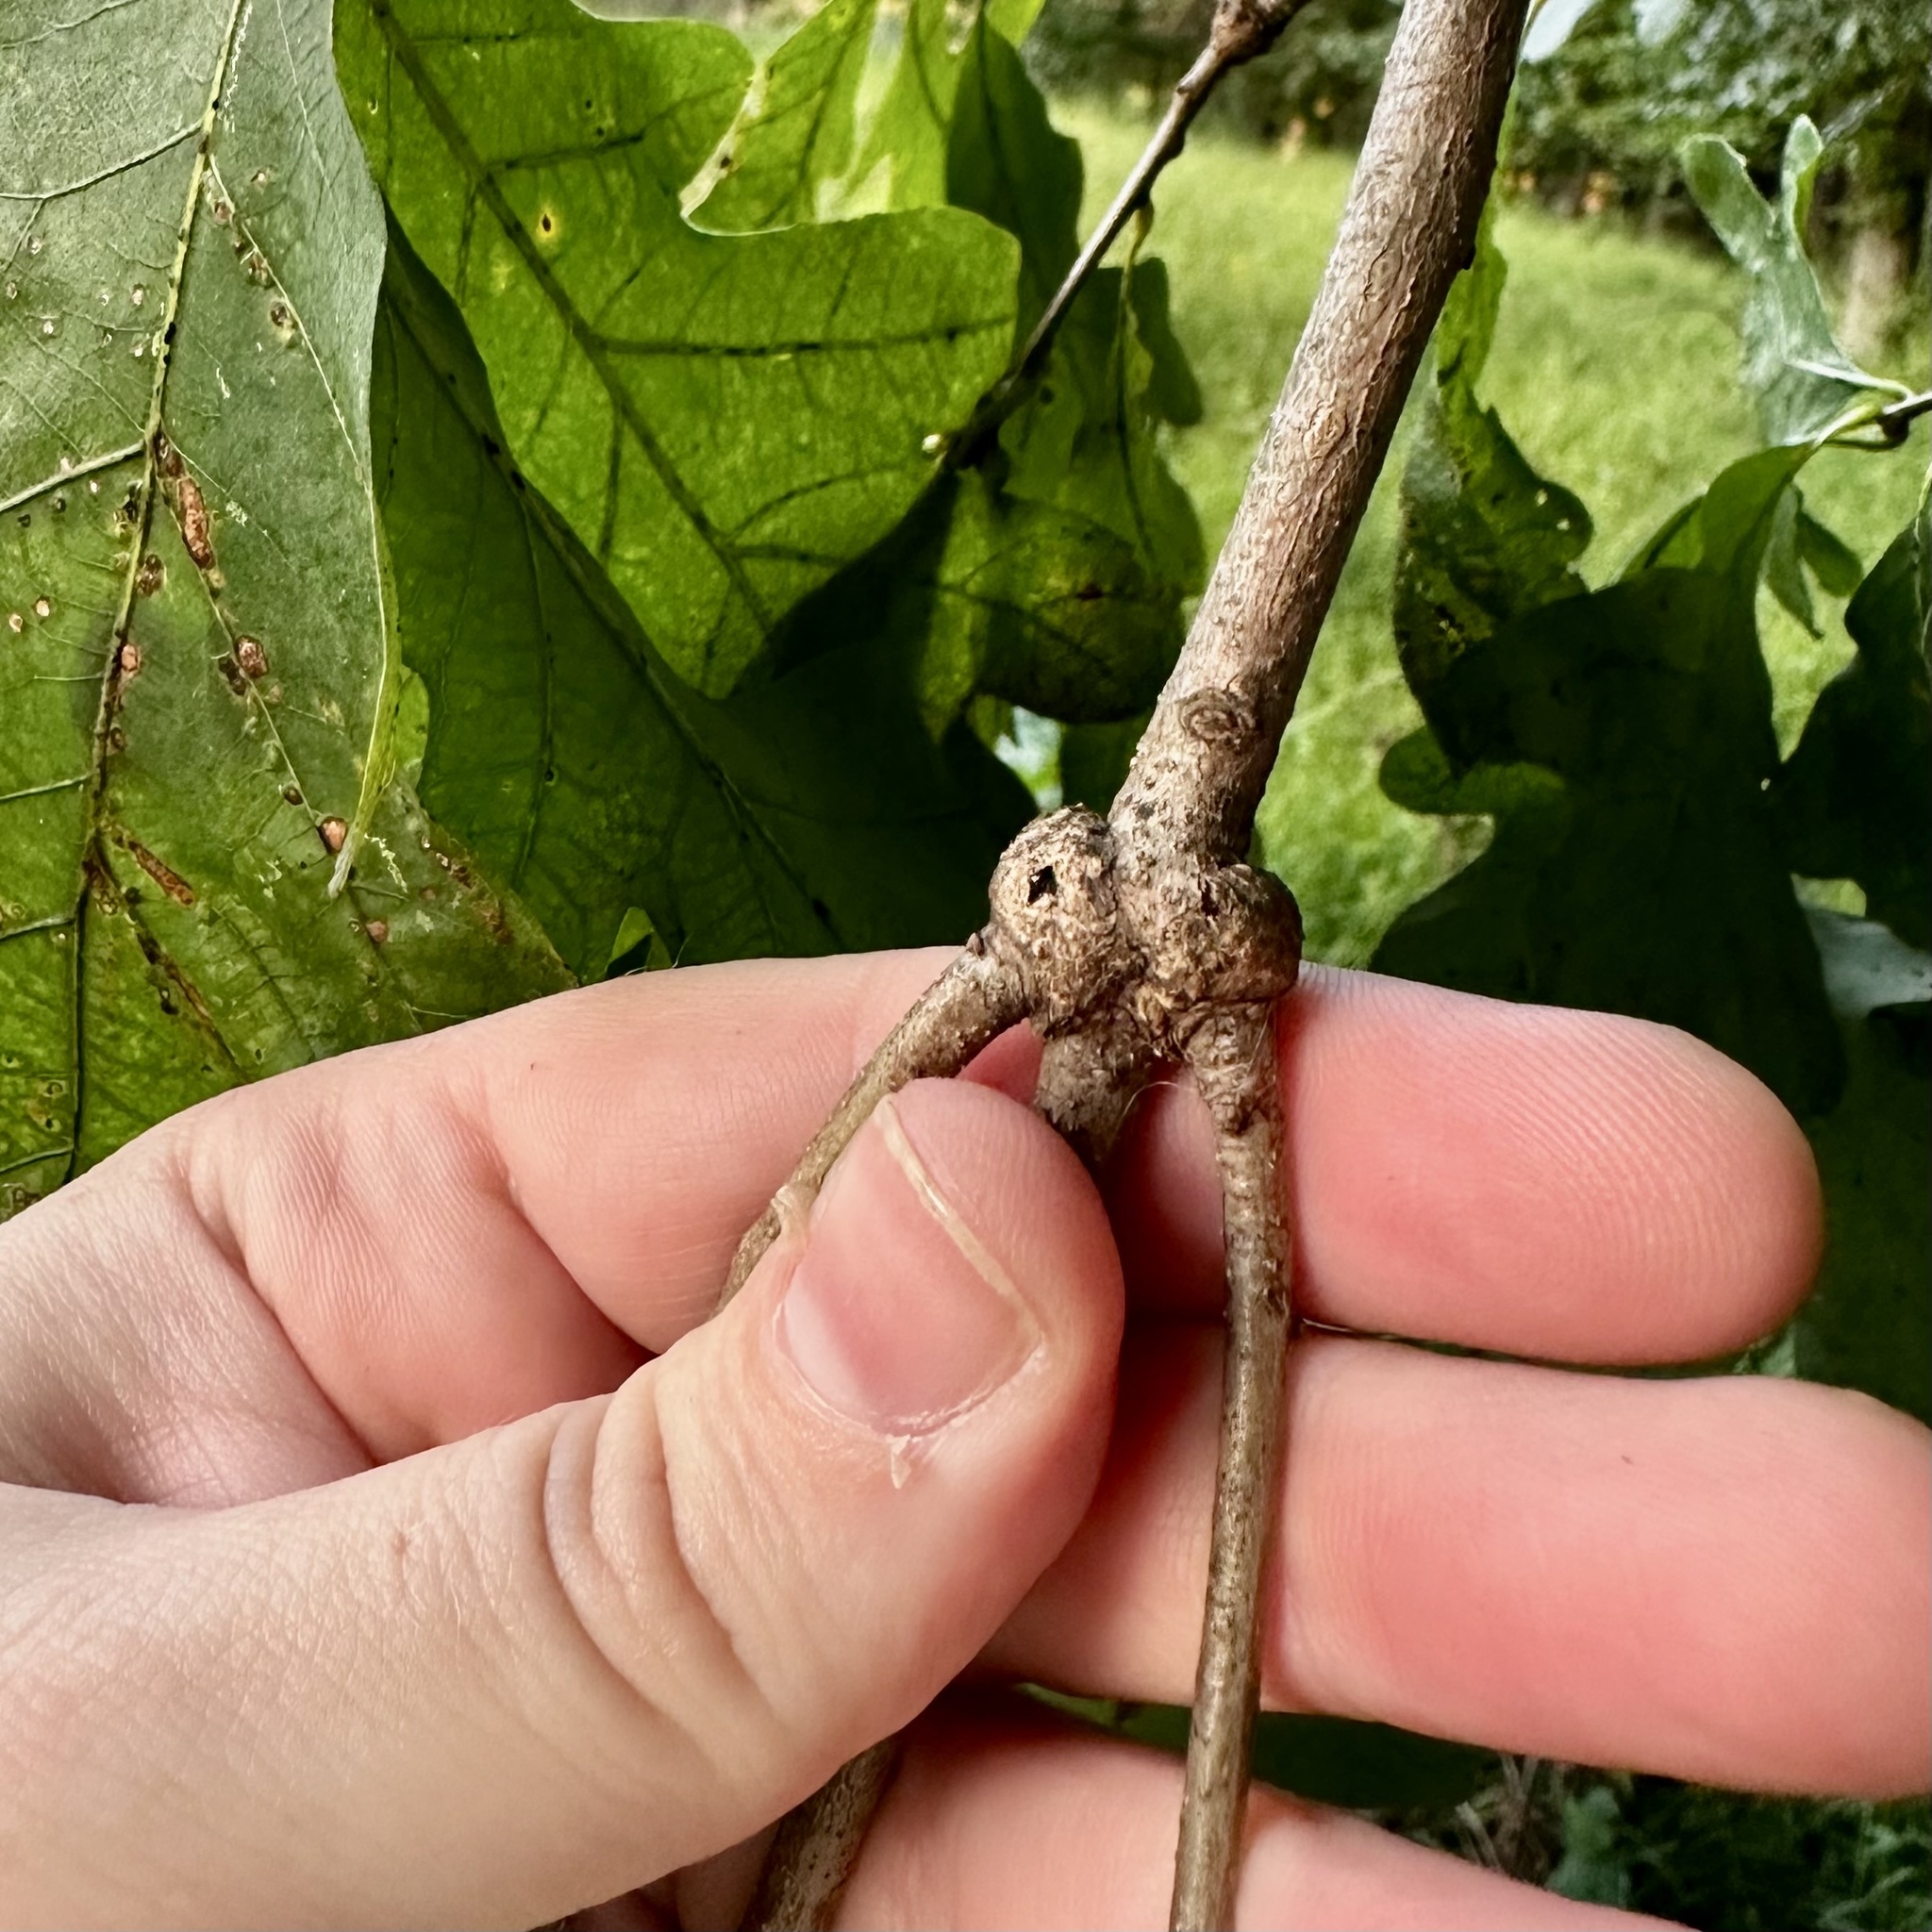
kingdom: Animalia
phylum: Arthropoda
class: Insecta
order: Hymenoptera
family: Cynipidae
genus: Loxaulus
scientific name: Loxaulus
